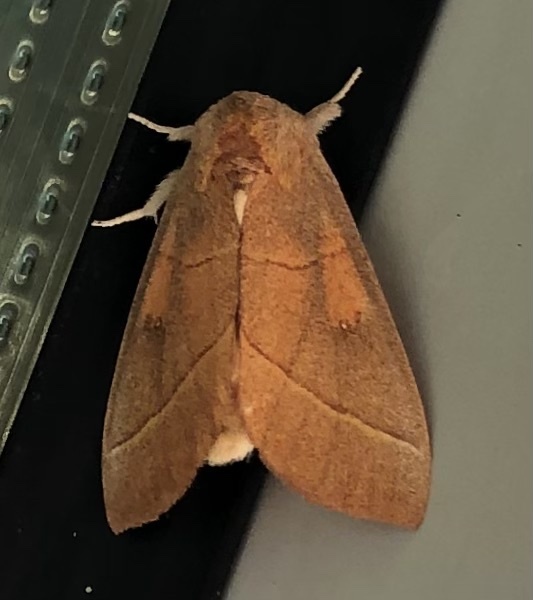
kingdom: Animalia
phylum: Arthropoda
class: Insecta
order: Lepidoptera
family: Notodontidae
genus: Nadata
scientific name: Nadata gibbosa
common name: White-dotted prominent
